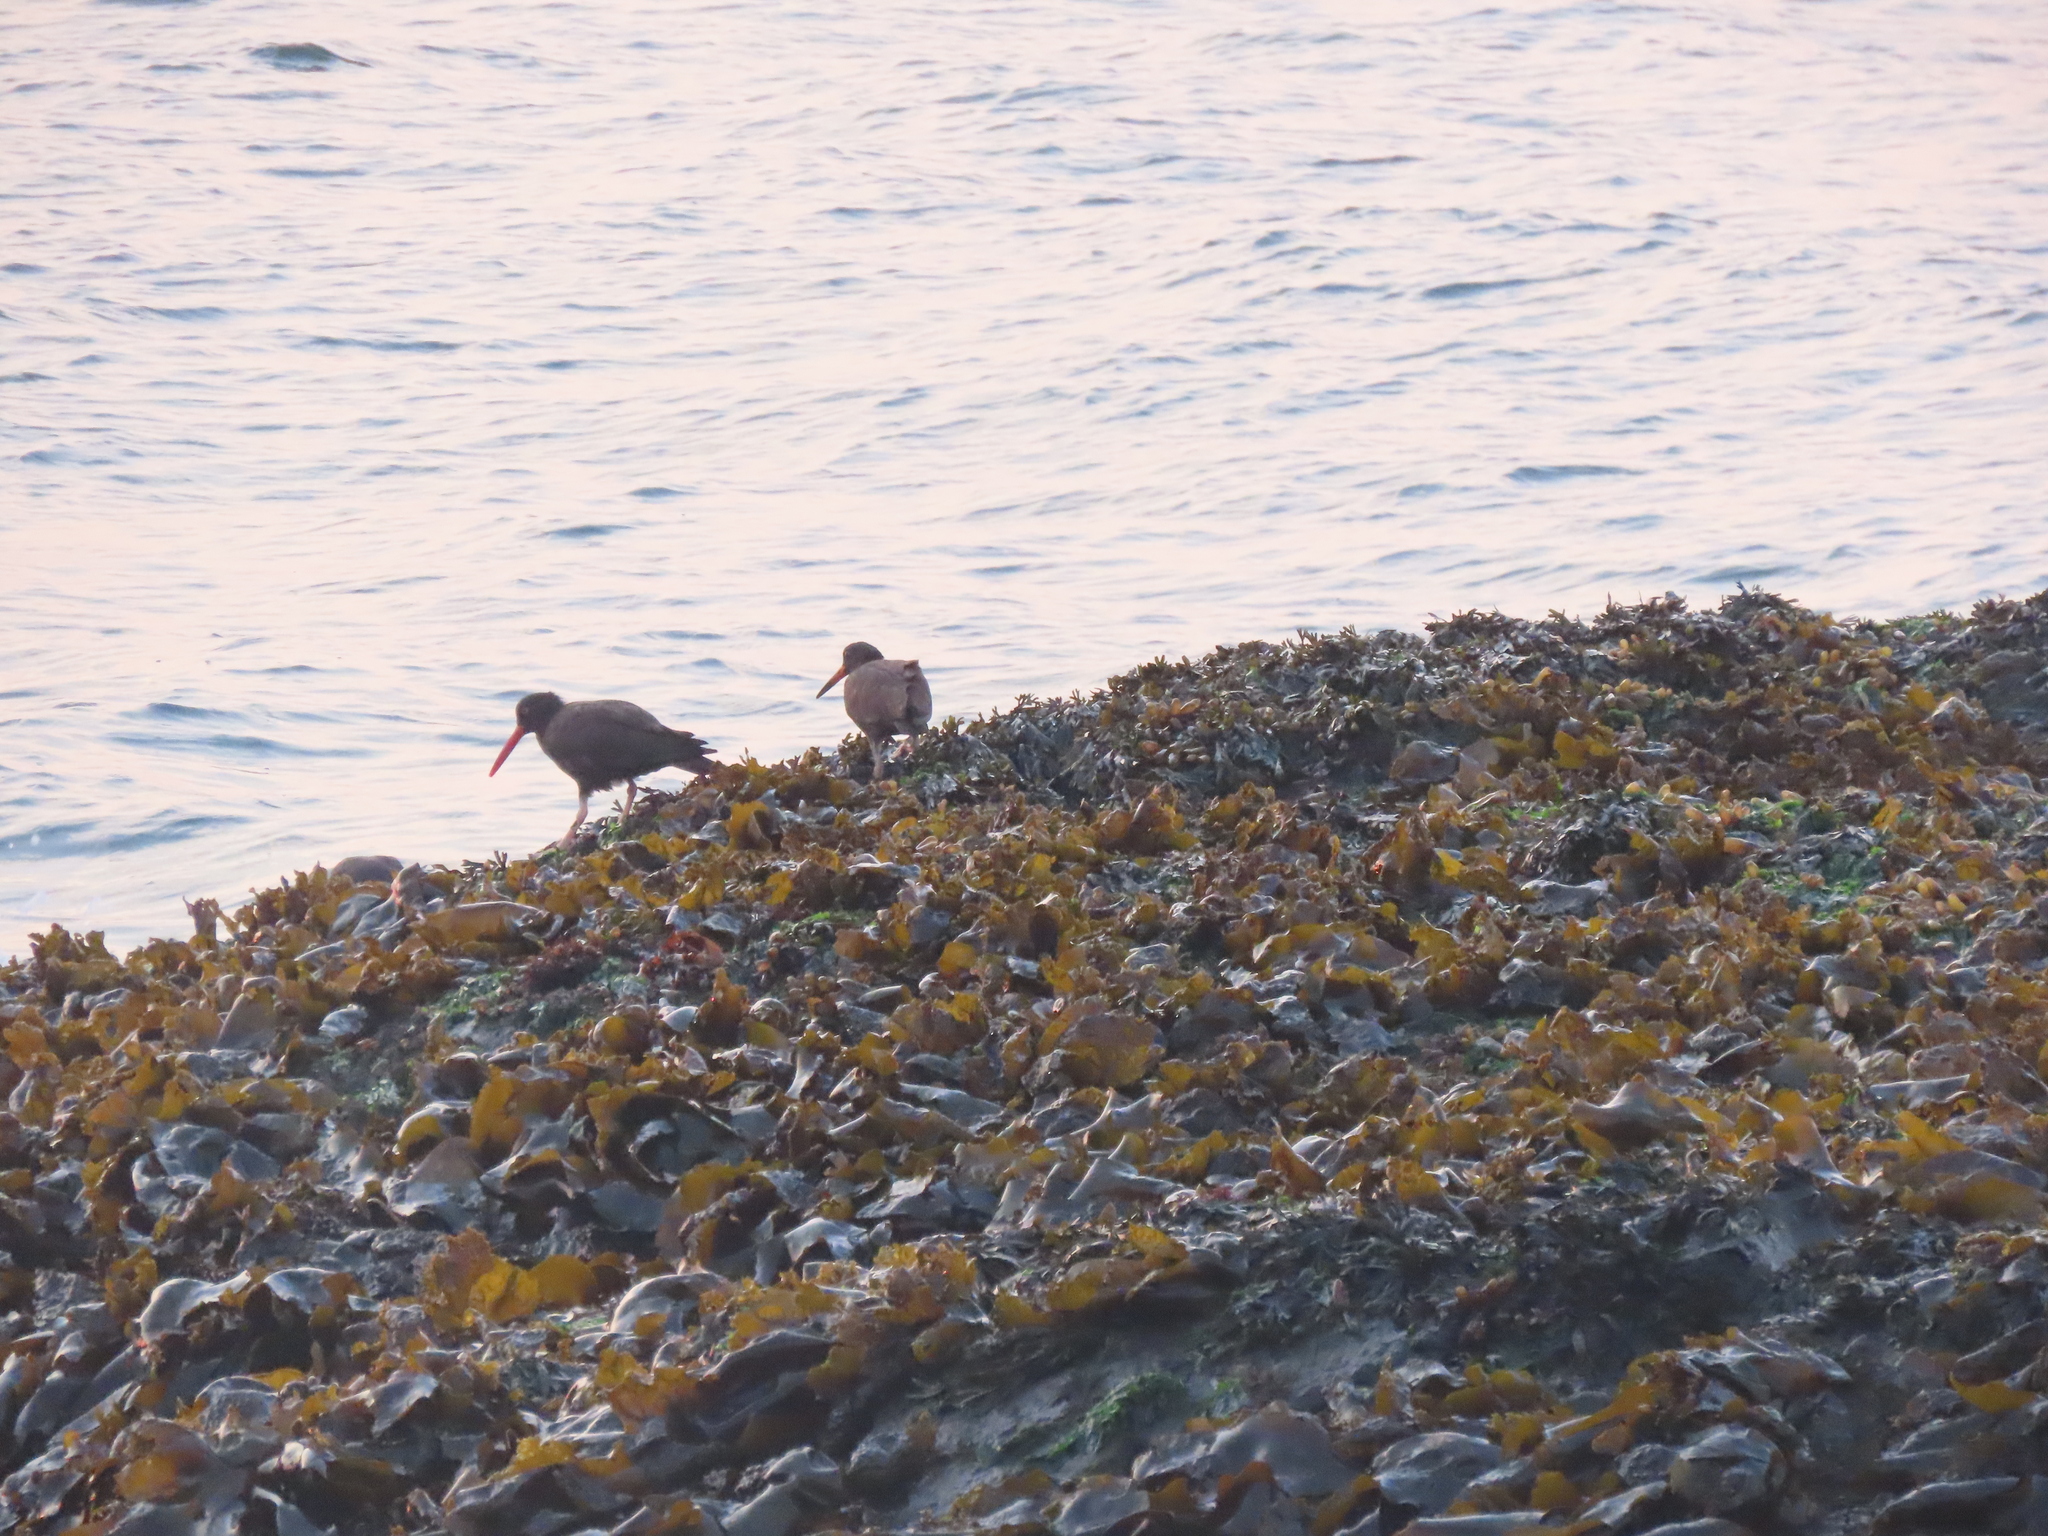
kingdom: Animalia
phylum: Chordata
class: Aves
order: Charadriiformes
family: Haematopodidae
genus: Haematopus
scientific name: Haematopus bachmani
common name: Black oystercatcher
